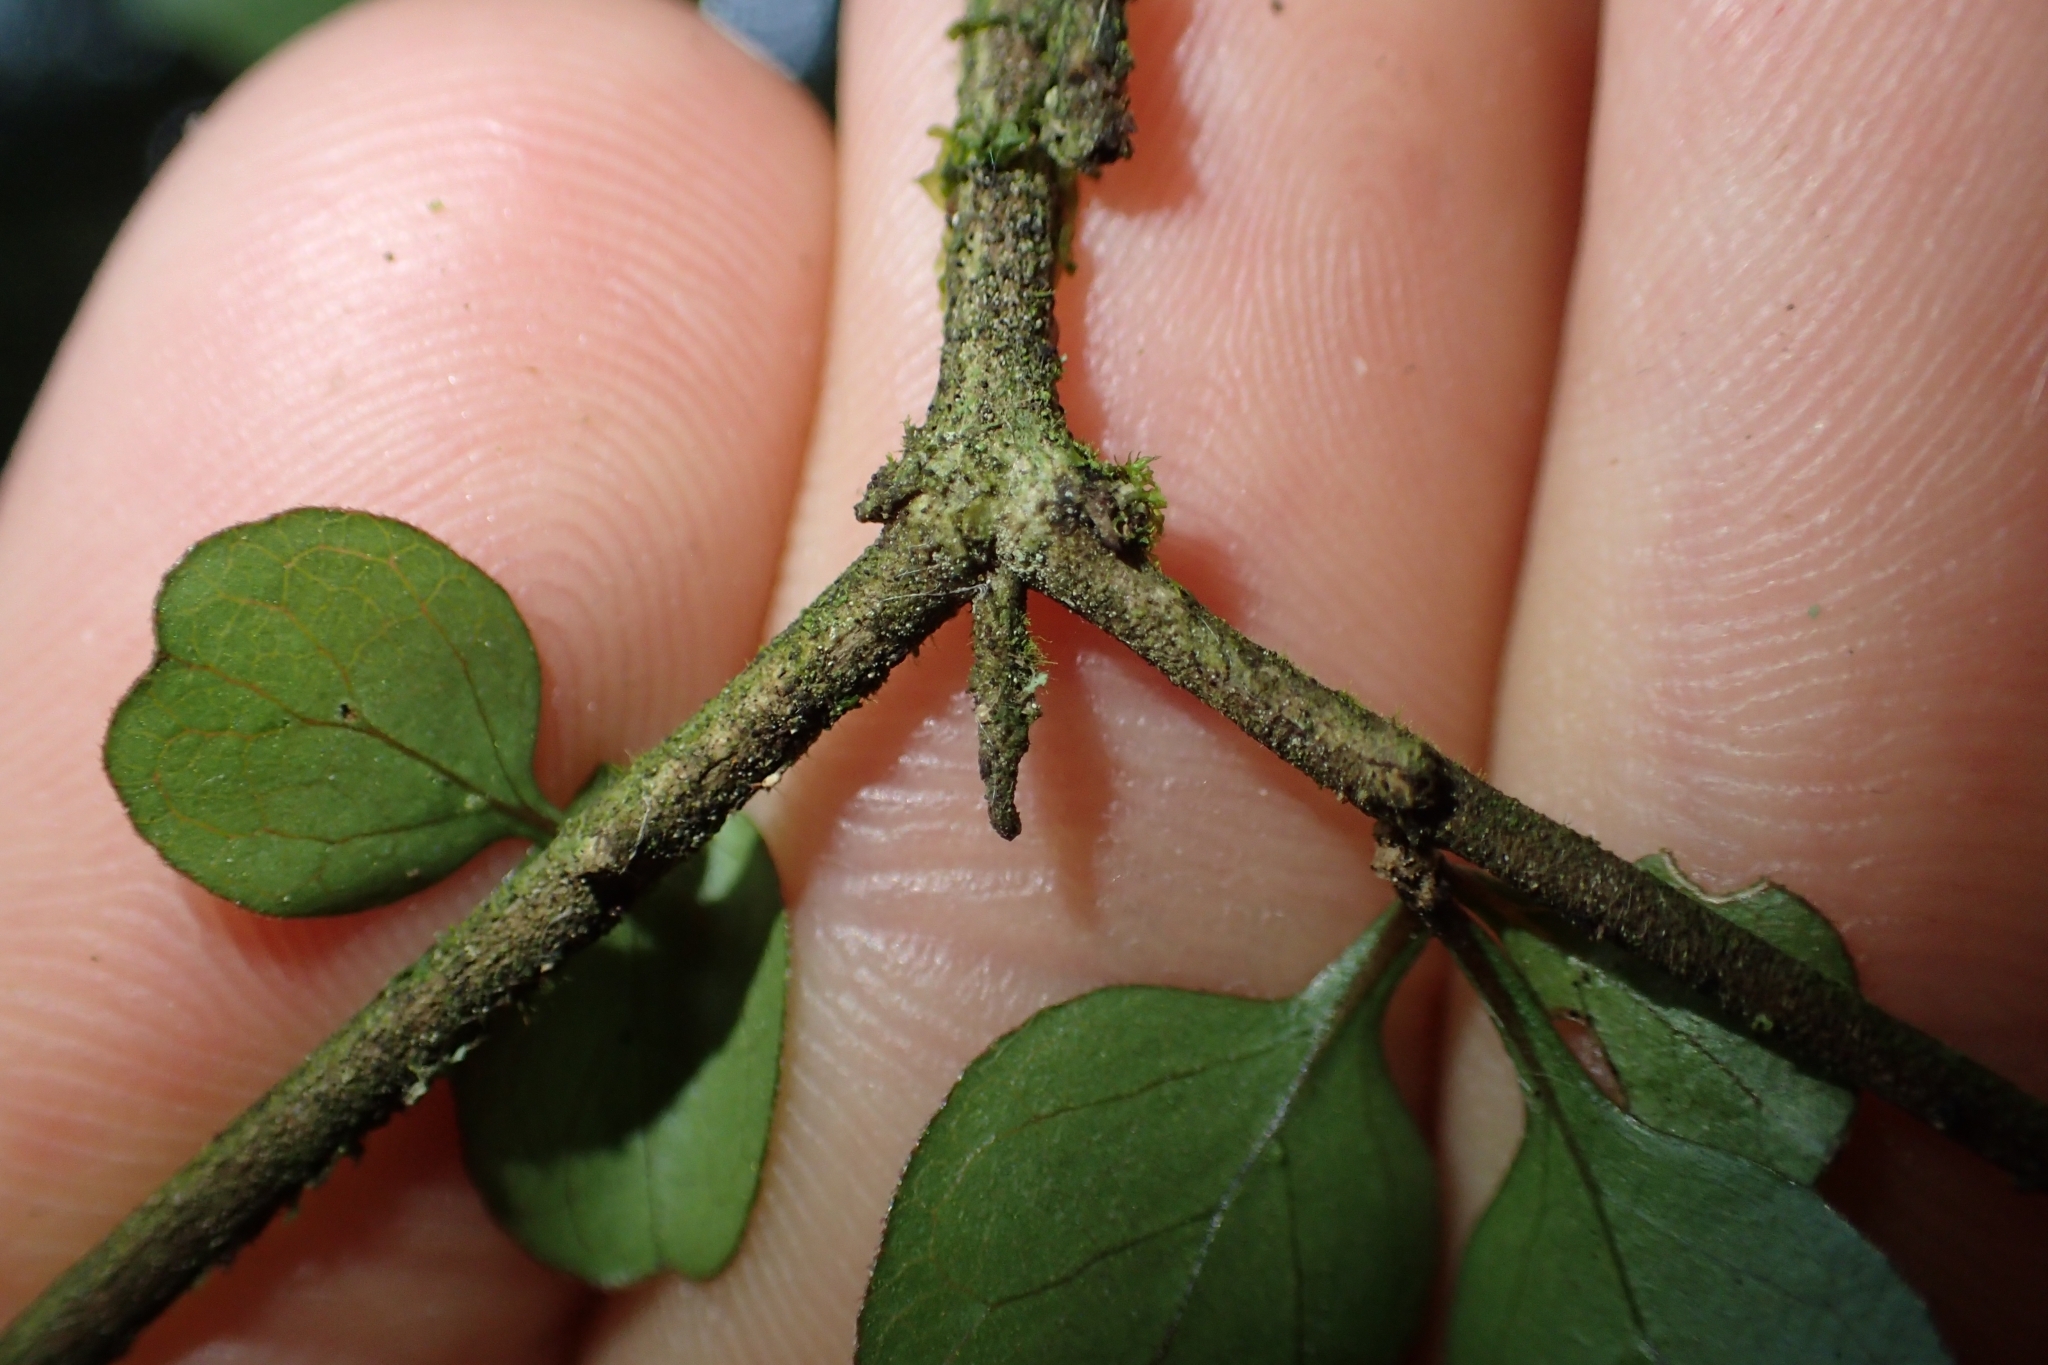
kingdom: Plantae
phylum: Tracheophyta
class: Magnoliopsida
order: Gentianales
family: Rubiaceae
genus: Coprosma
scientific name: Coprosma rubra
